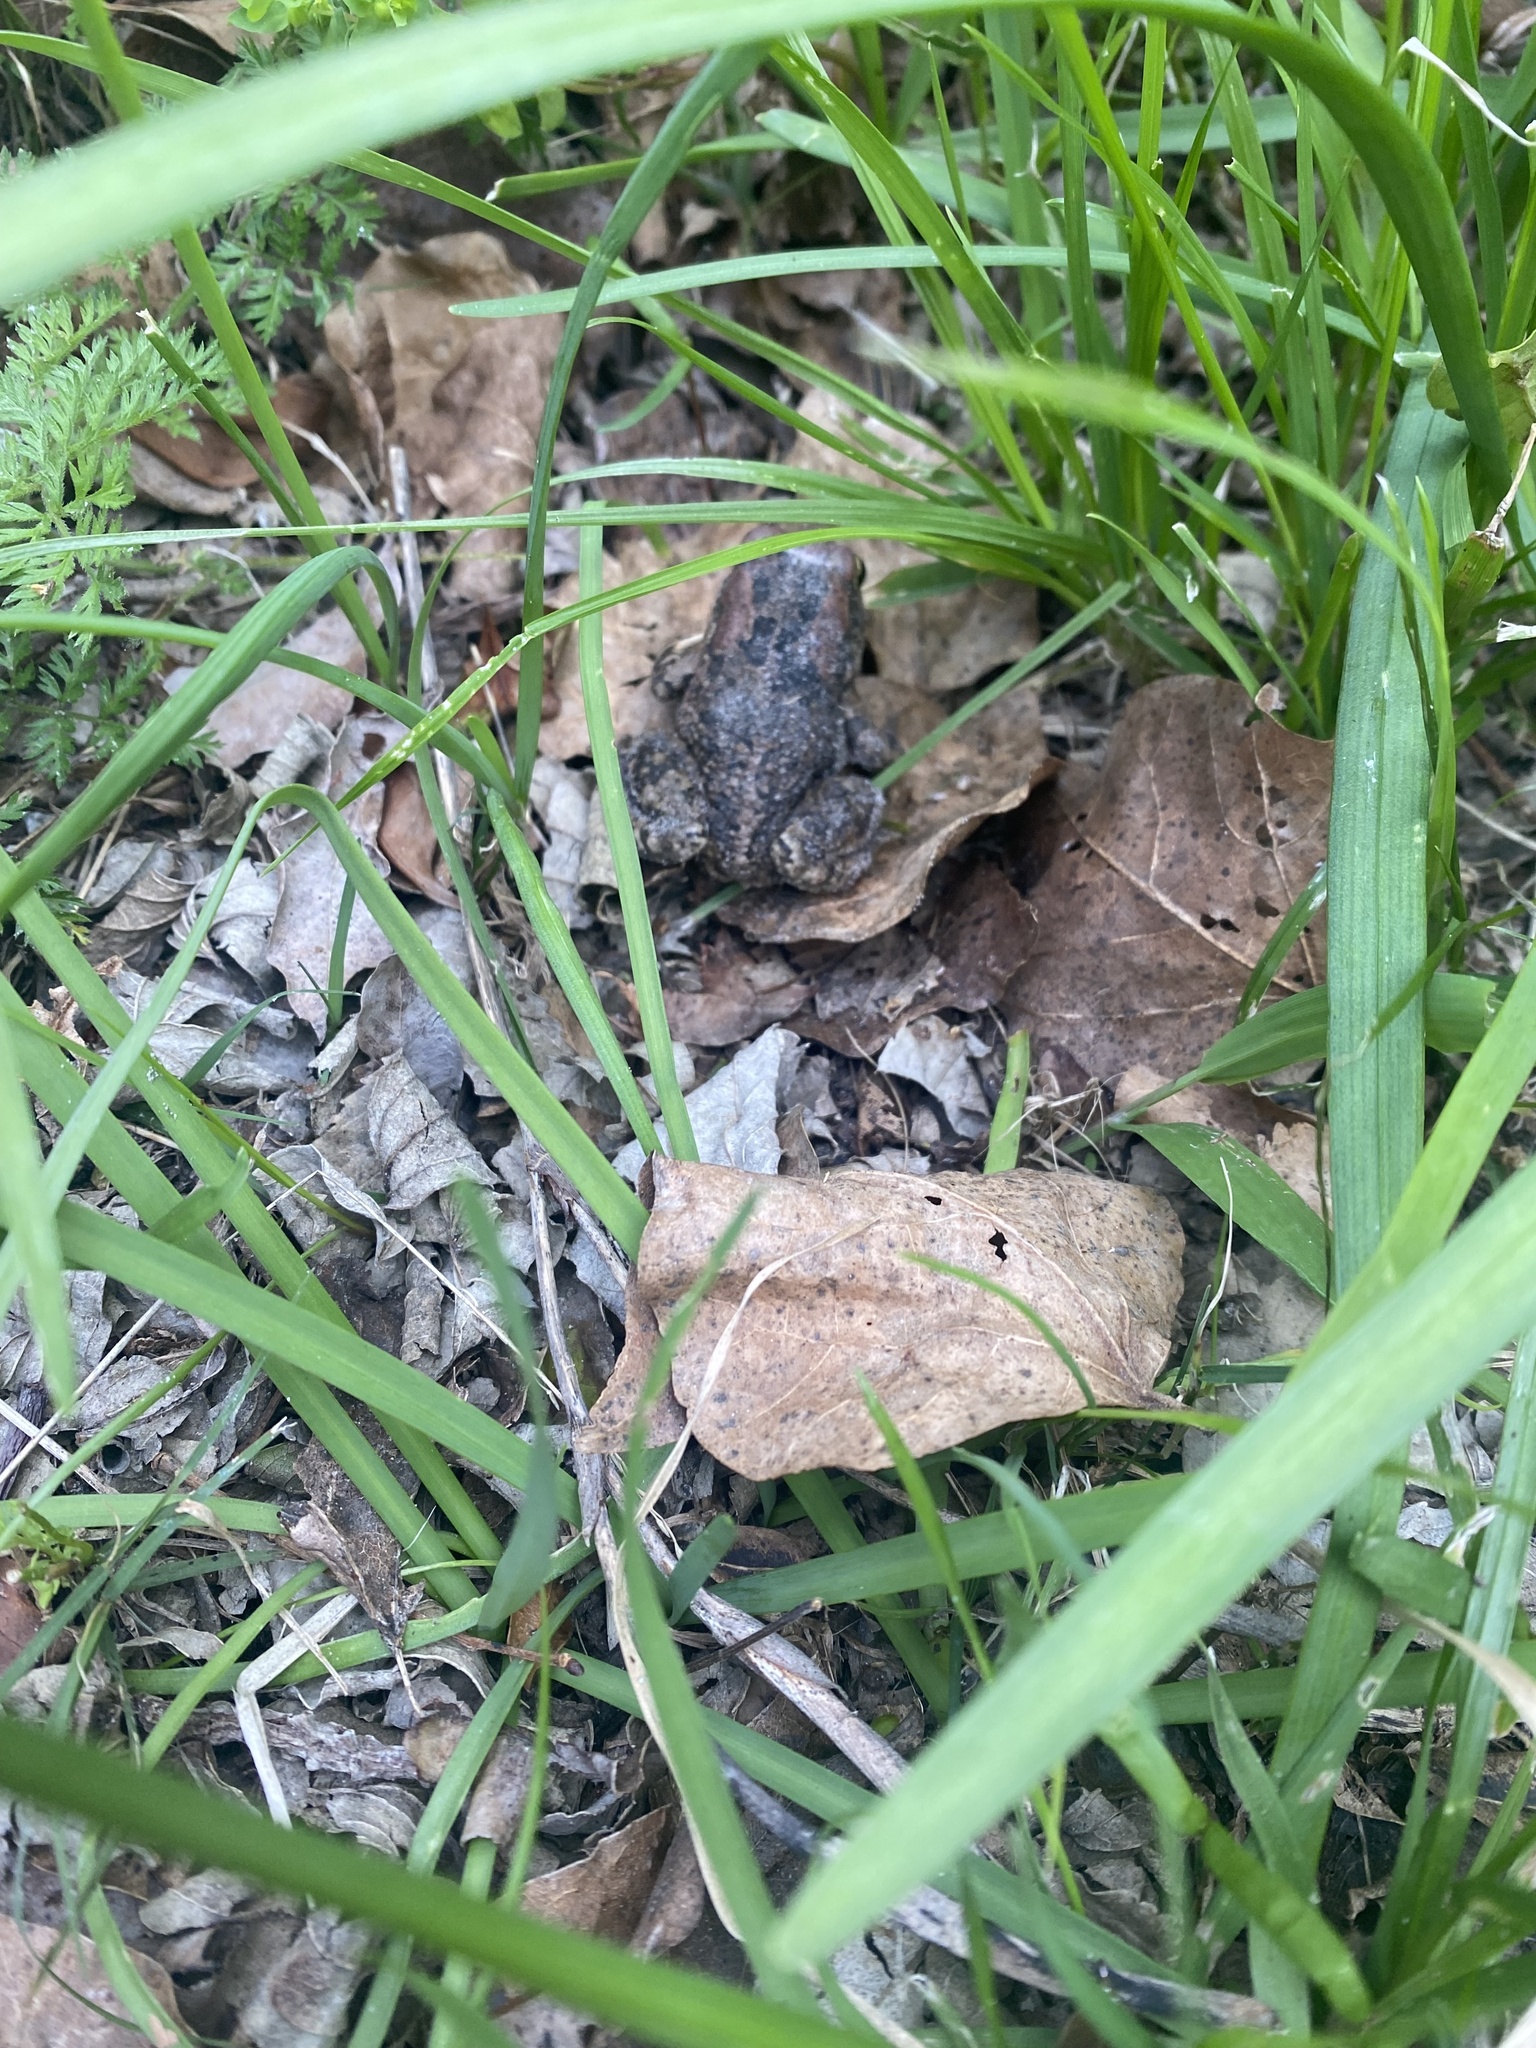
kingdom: Animalia
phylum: Chordata
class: Amphibia
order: Anura
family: Bufonidae
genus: Sclerophrys
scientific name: Sclerophrys capensis
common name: Ranger’s toad
